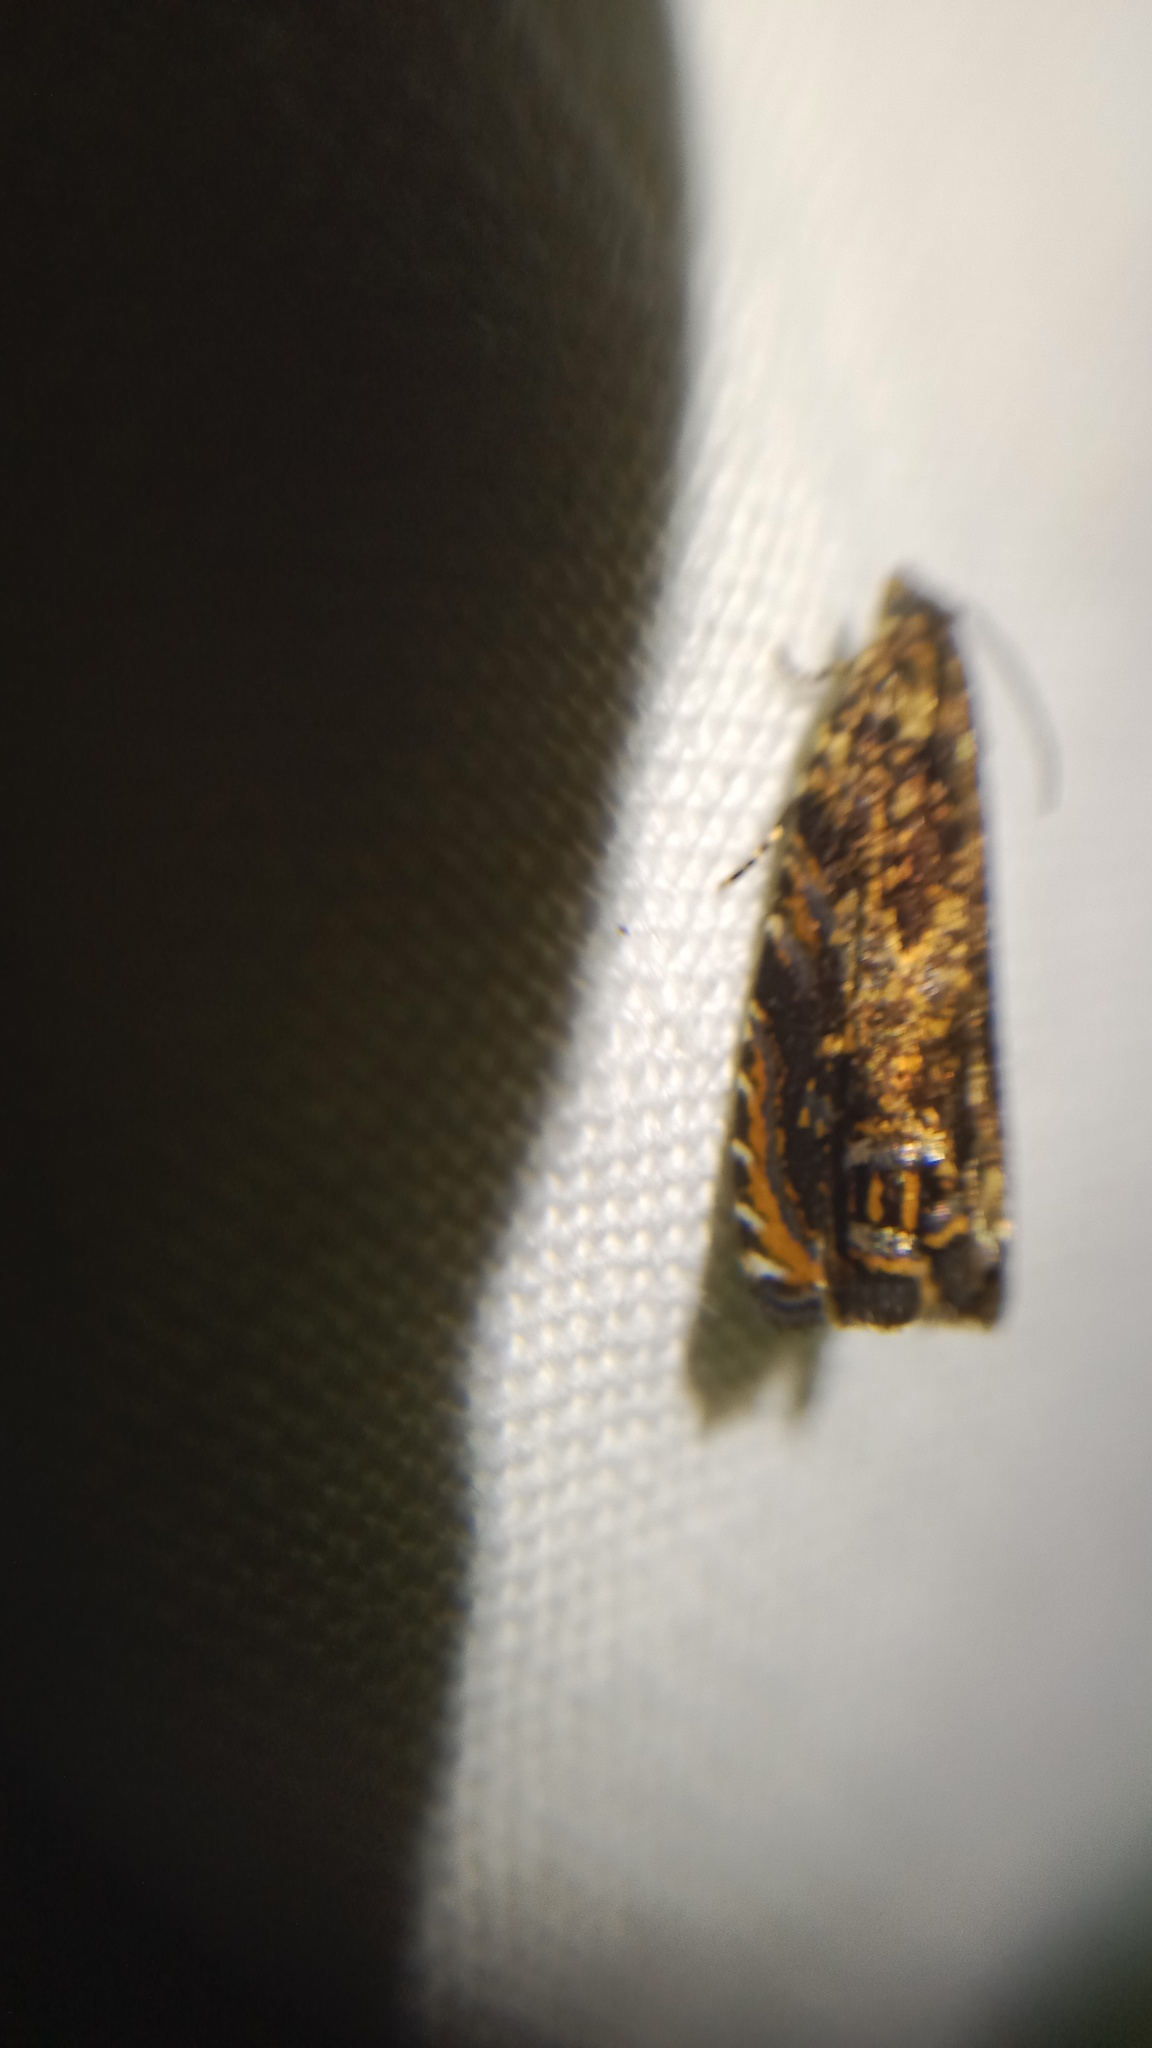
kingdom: Animalia
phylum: Arthropoda
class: Insecta
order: Lepidoptera
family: Tortricidae
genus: Enarmonia
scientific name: Enarmonia formosana
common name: Cherry bark tortrix
